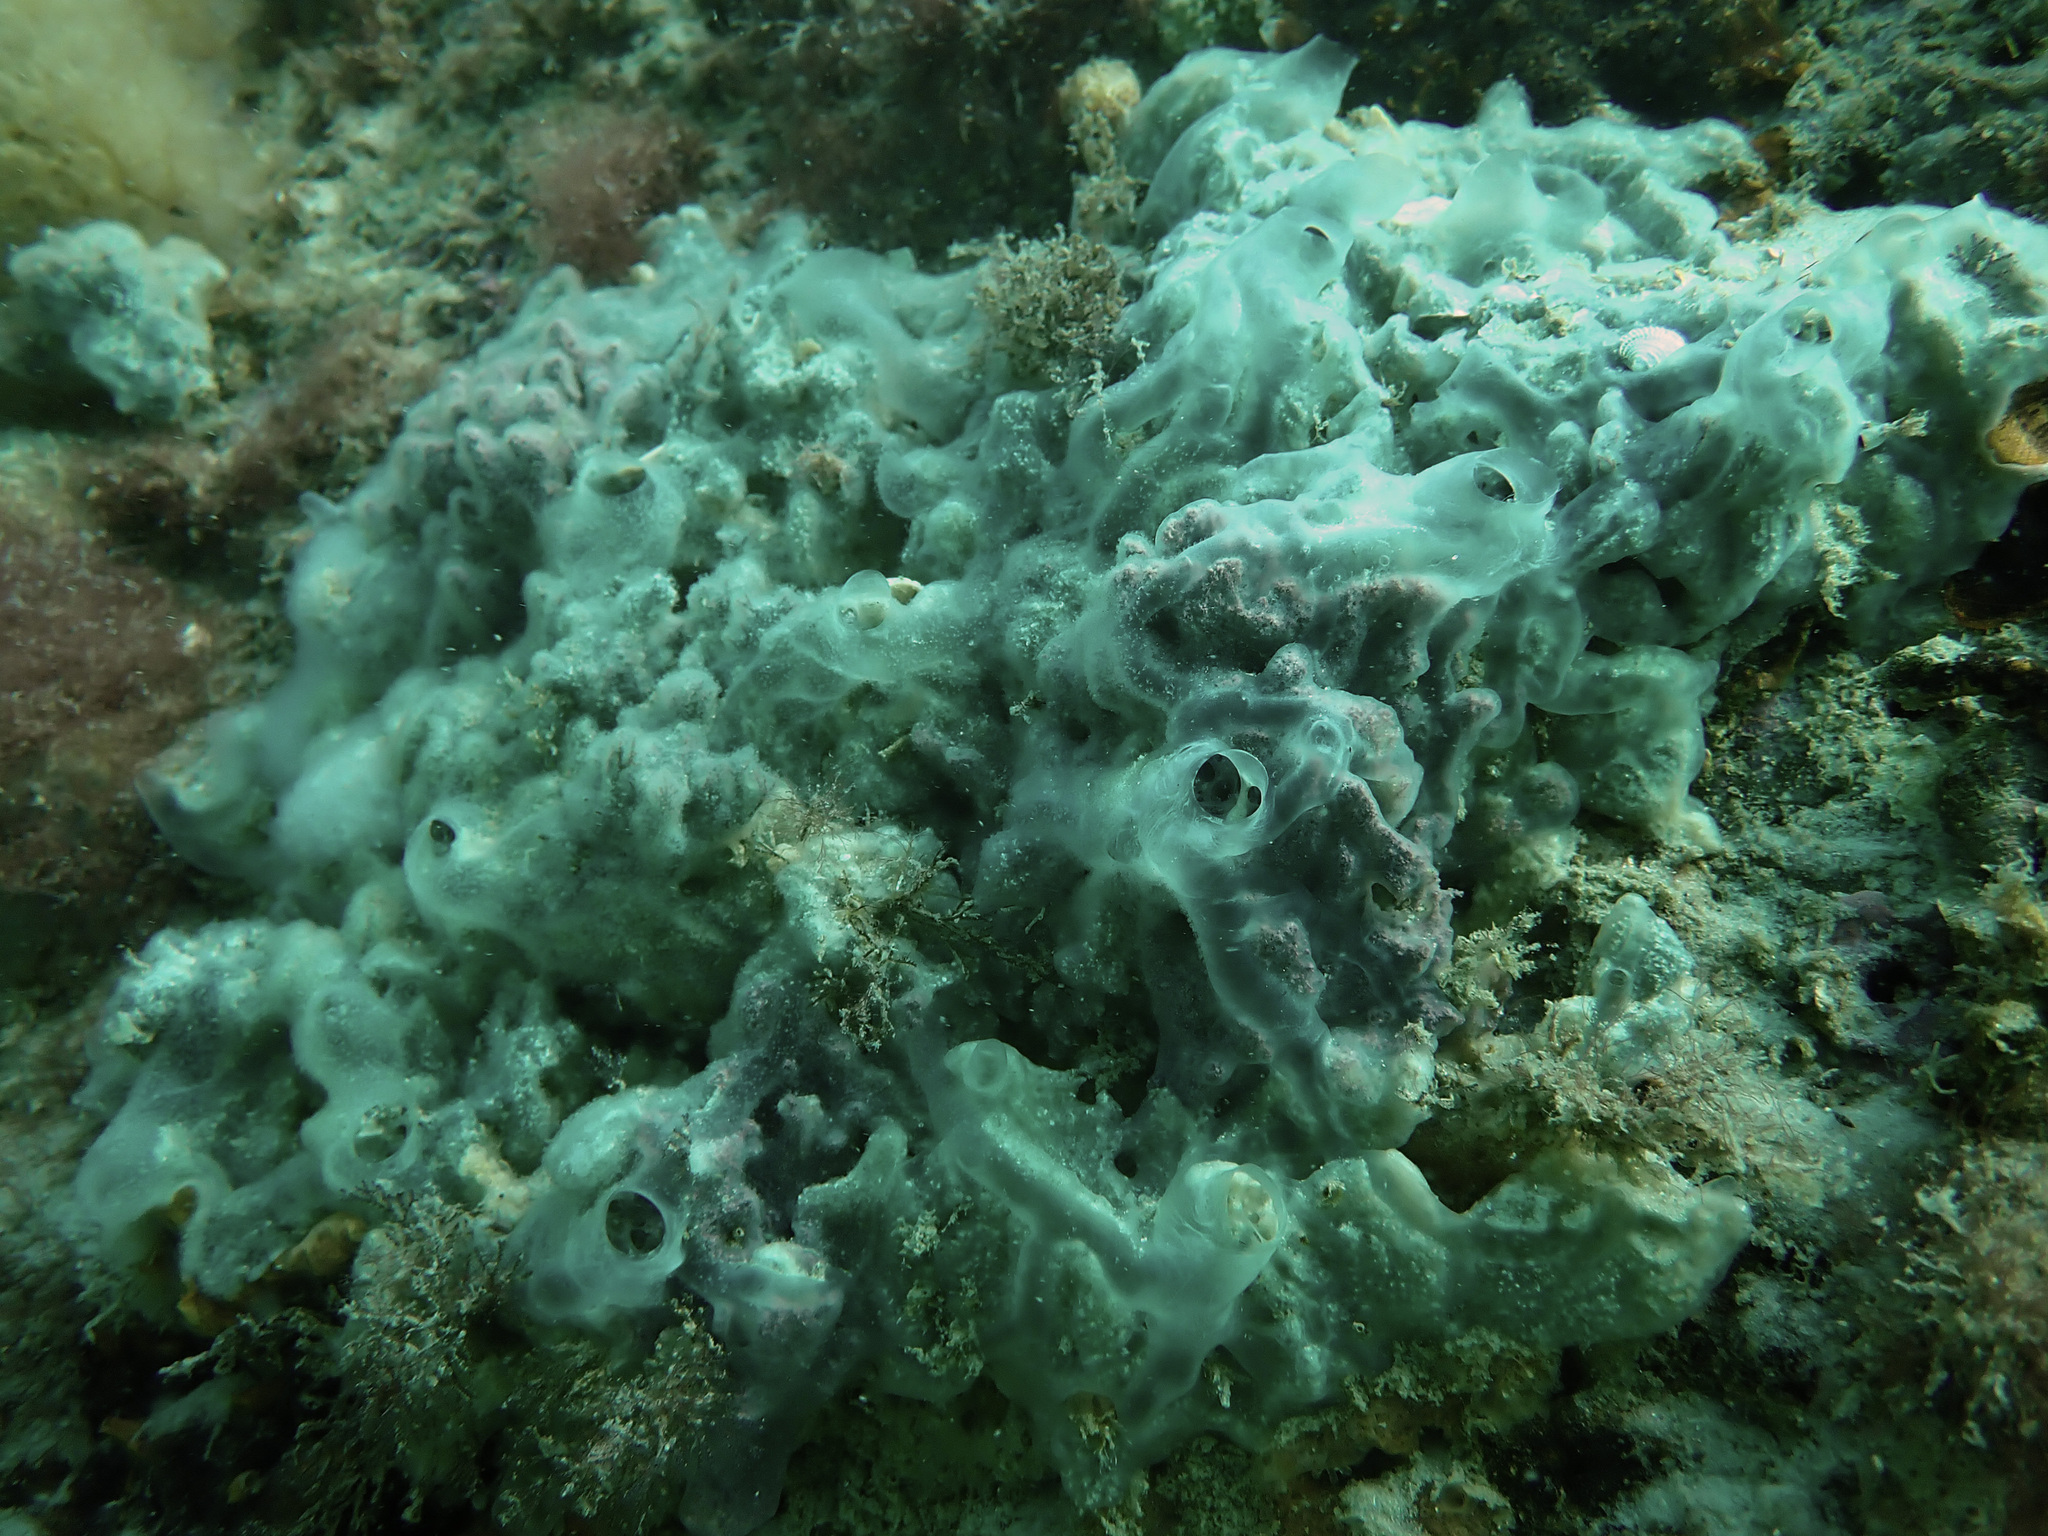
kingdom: Animalia
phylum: Porifera
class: Demospongiae
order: Poecilosclerida
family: Coelosphaeridae
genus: Lissodendoryx
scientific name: Lissodendoryx sigmata
